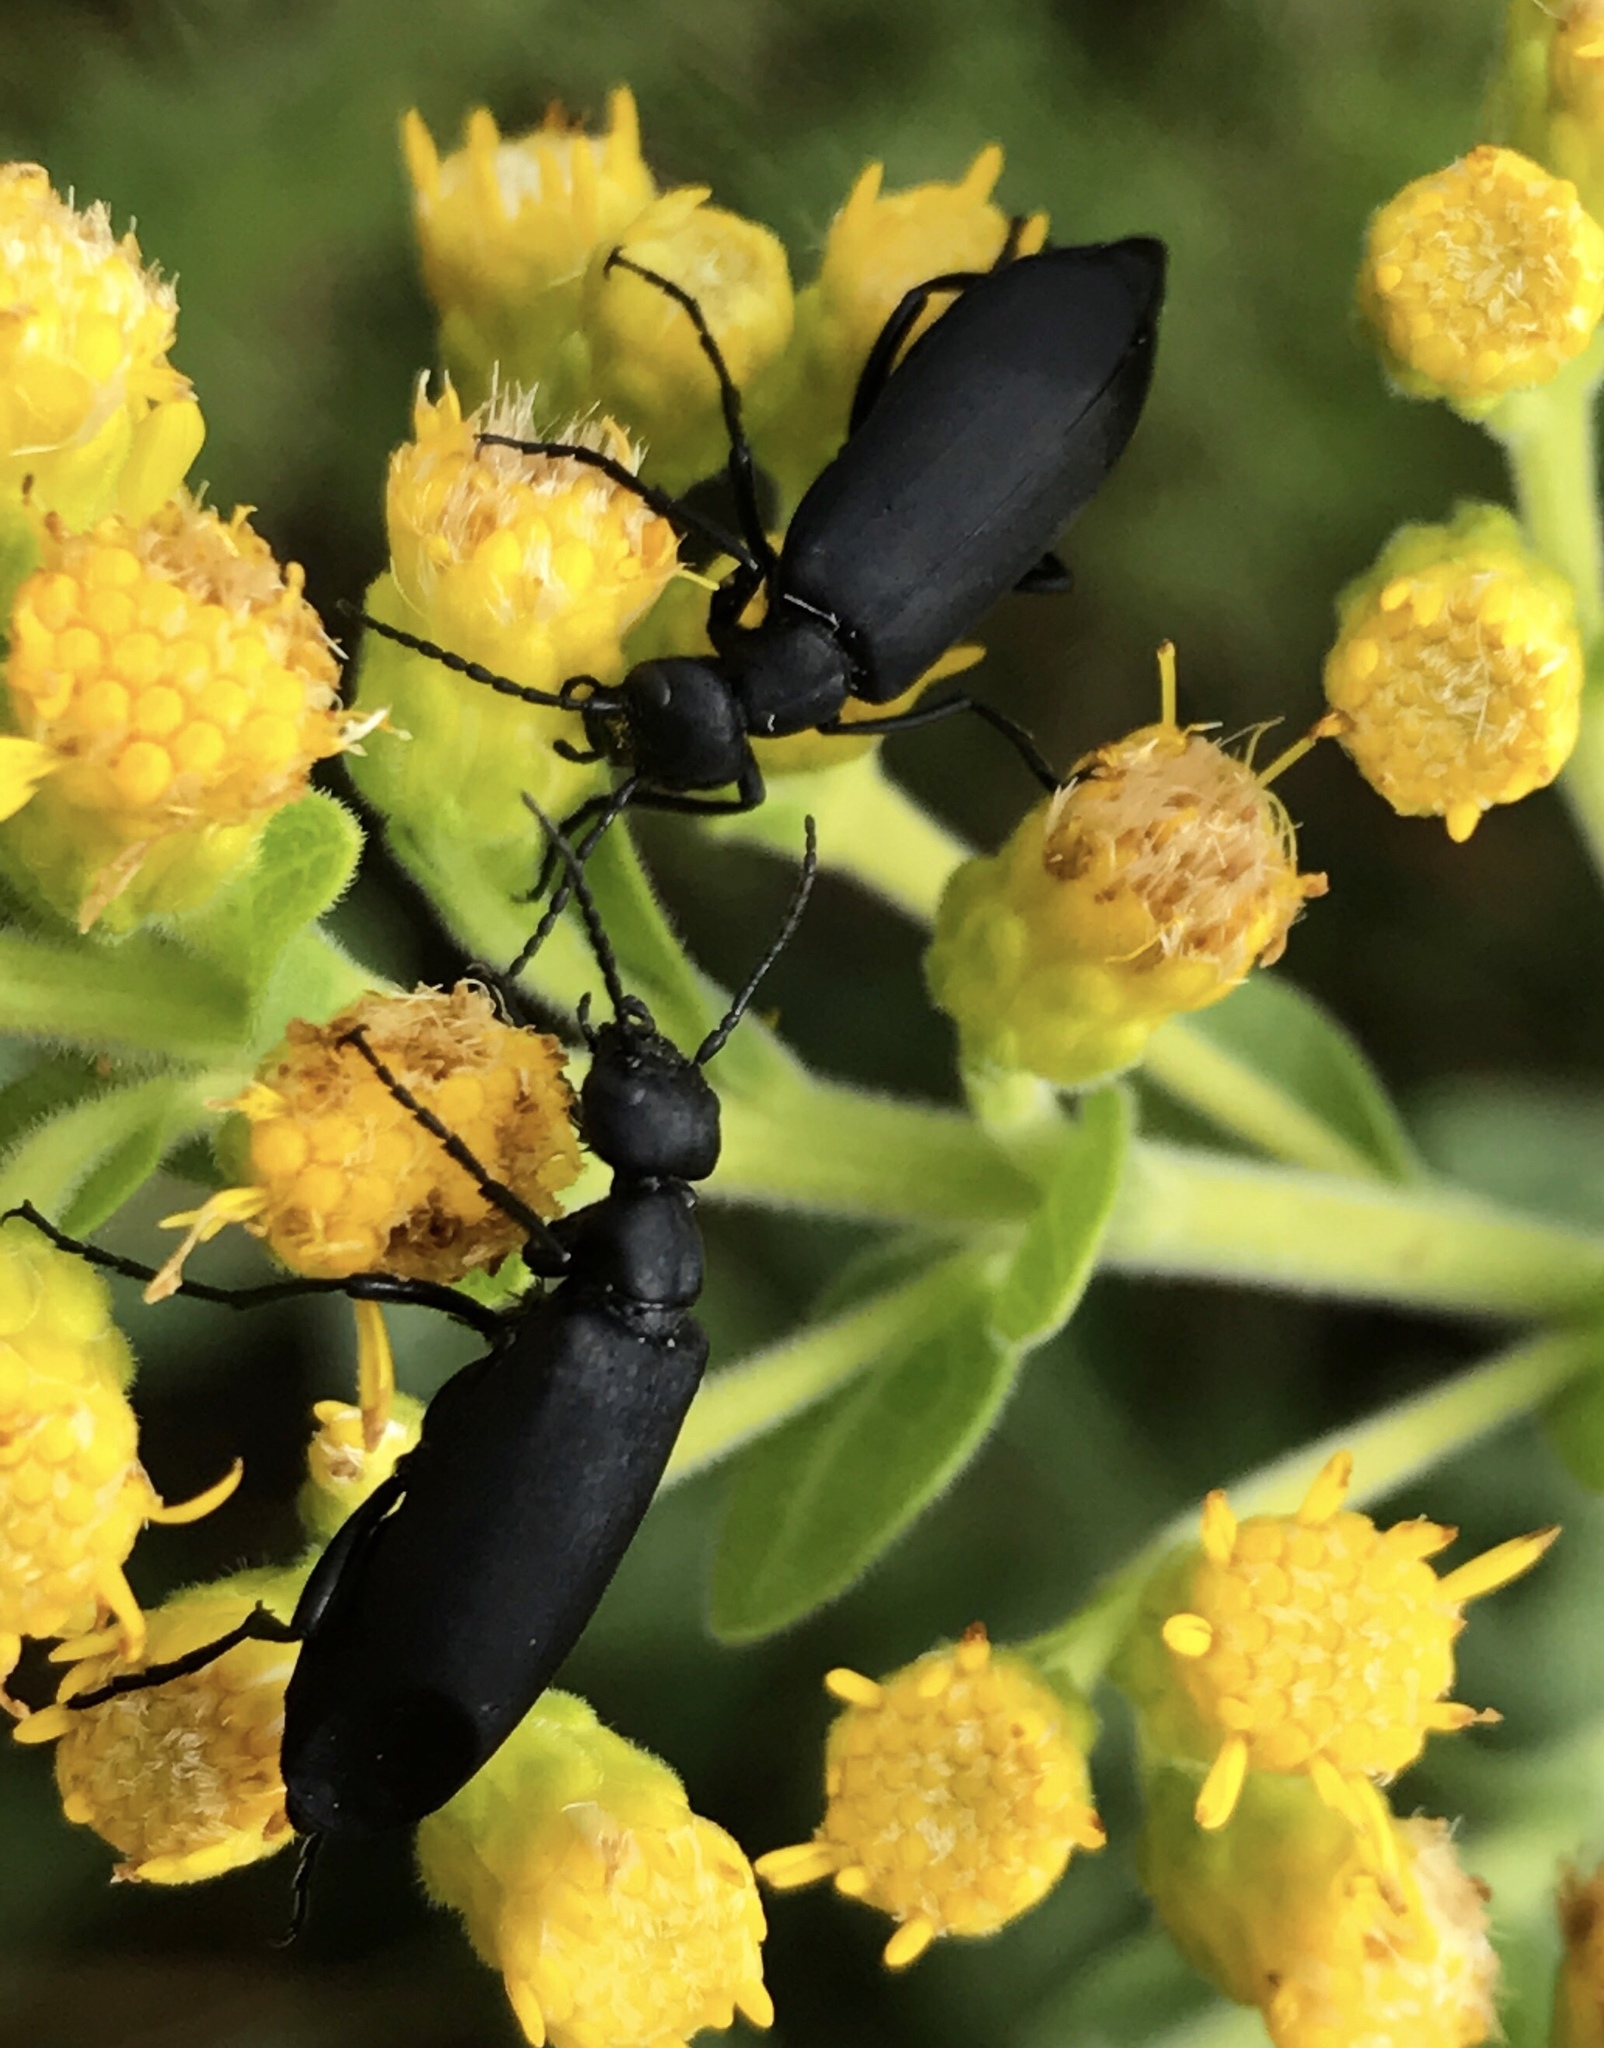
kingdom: Animalia
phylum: Arthropoda
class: Insecta
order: Coleoptera
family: Meloidae
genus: Epicauta
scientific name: Epicauta pensylvanica
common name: Black blister beetle
